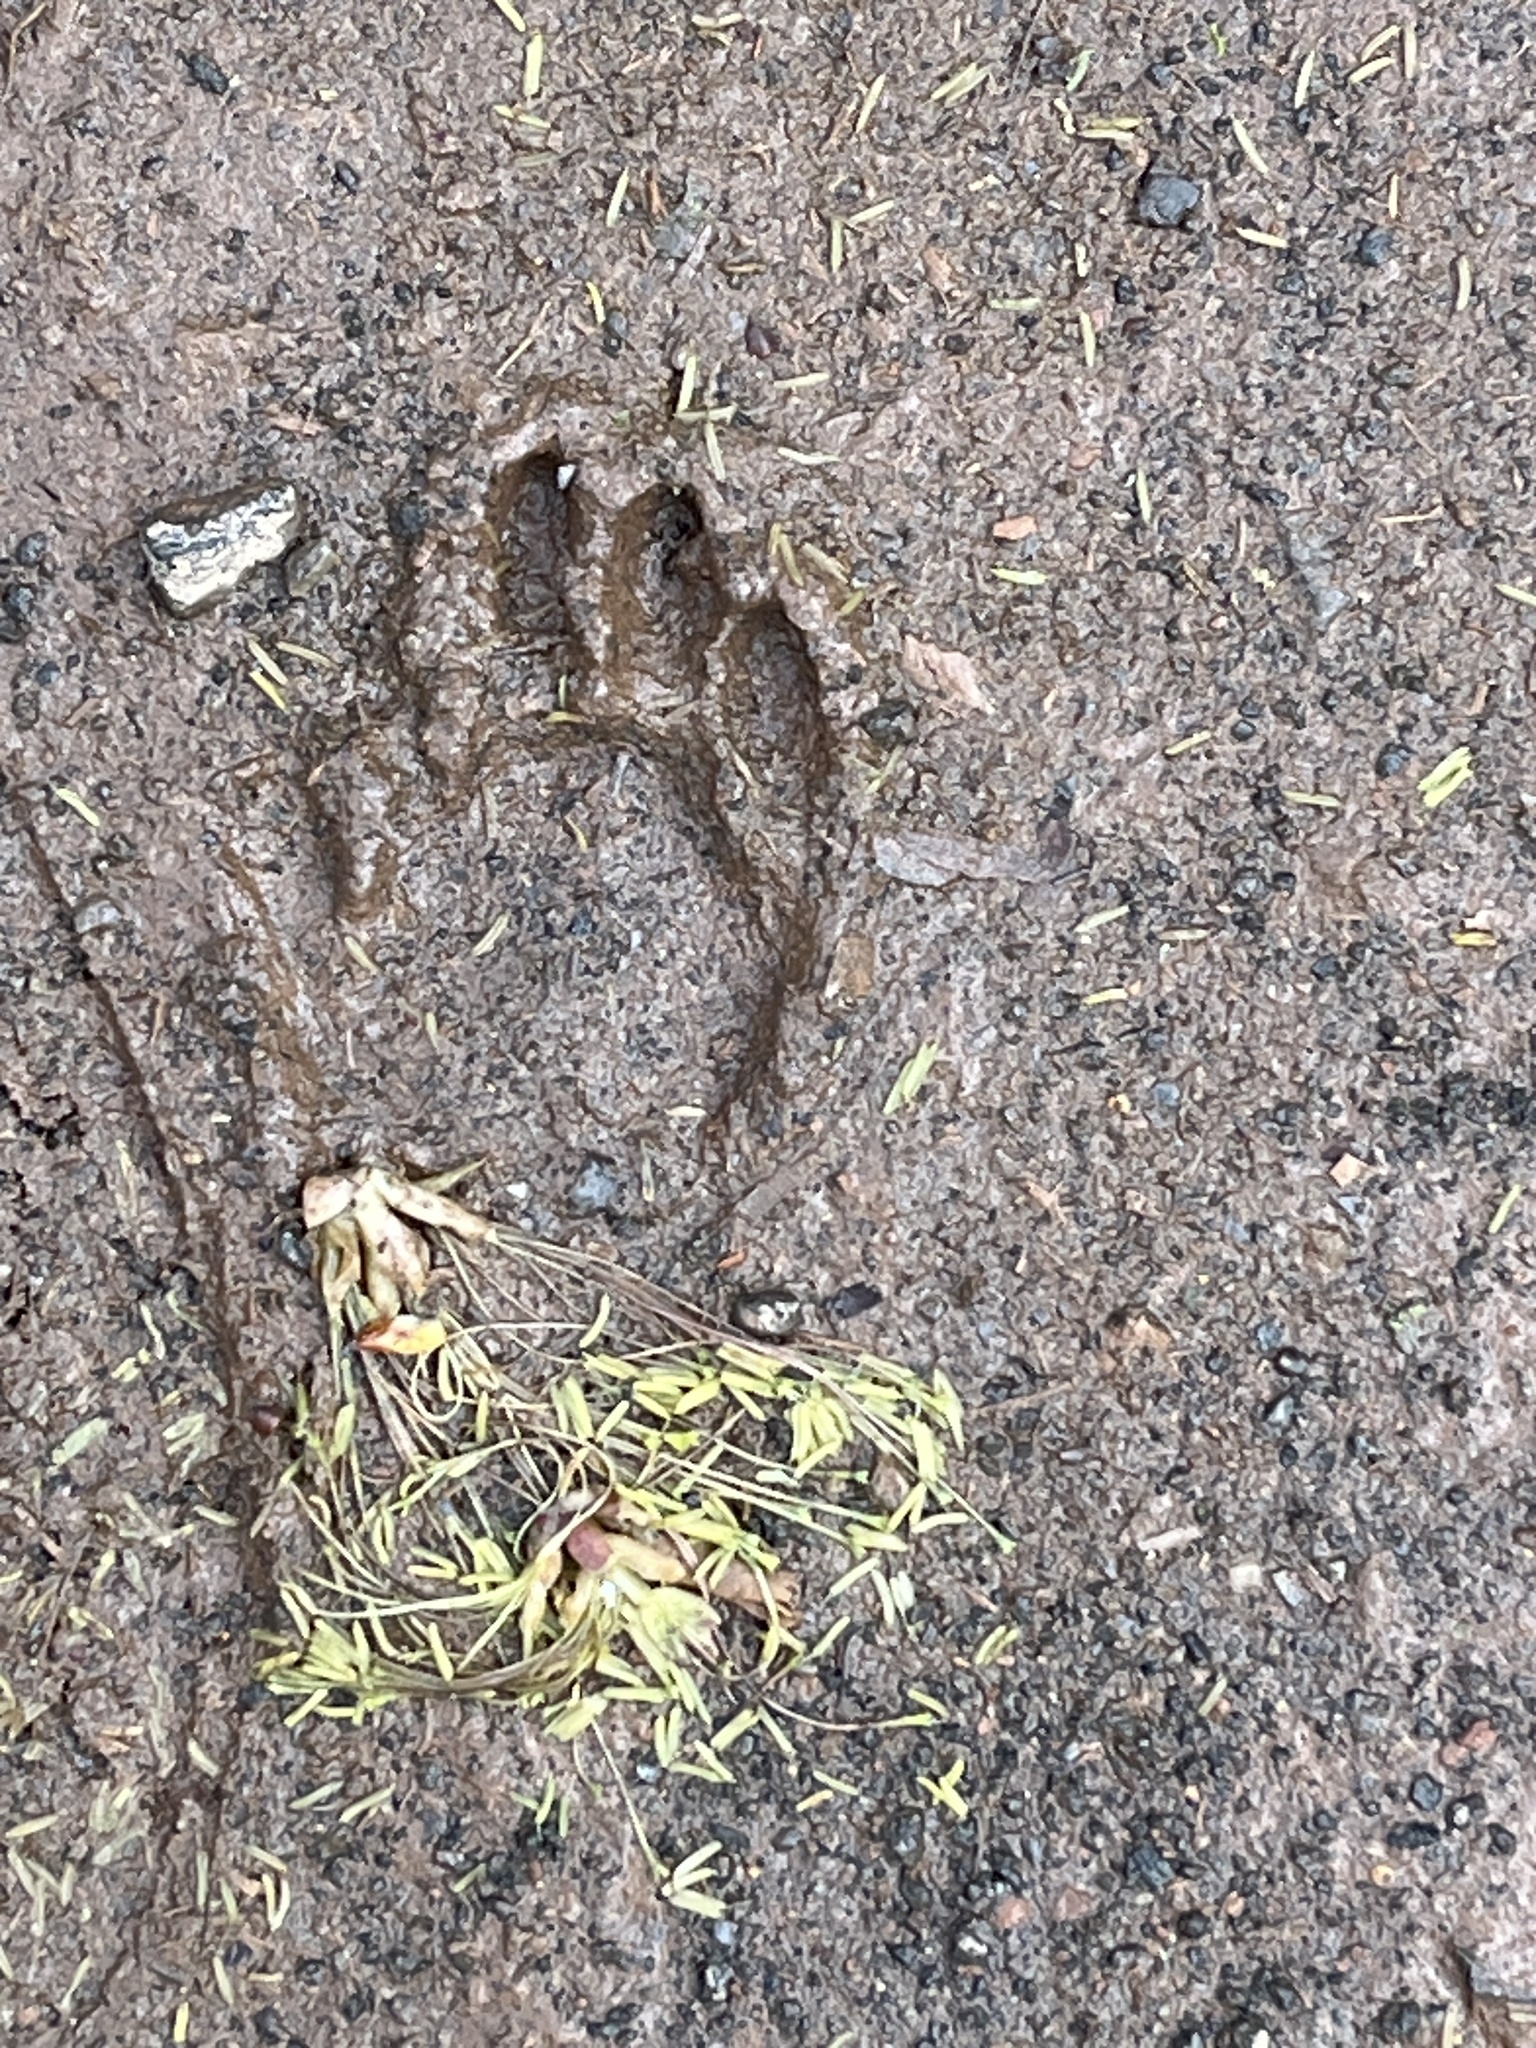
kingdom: Animalia
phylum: Chordata
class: Mammalia
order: Carnivora
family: Procyonidae
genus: Procyon
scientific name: Procyon lotor
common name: Raccoon
